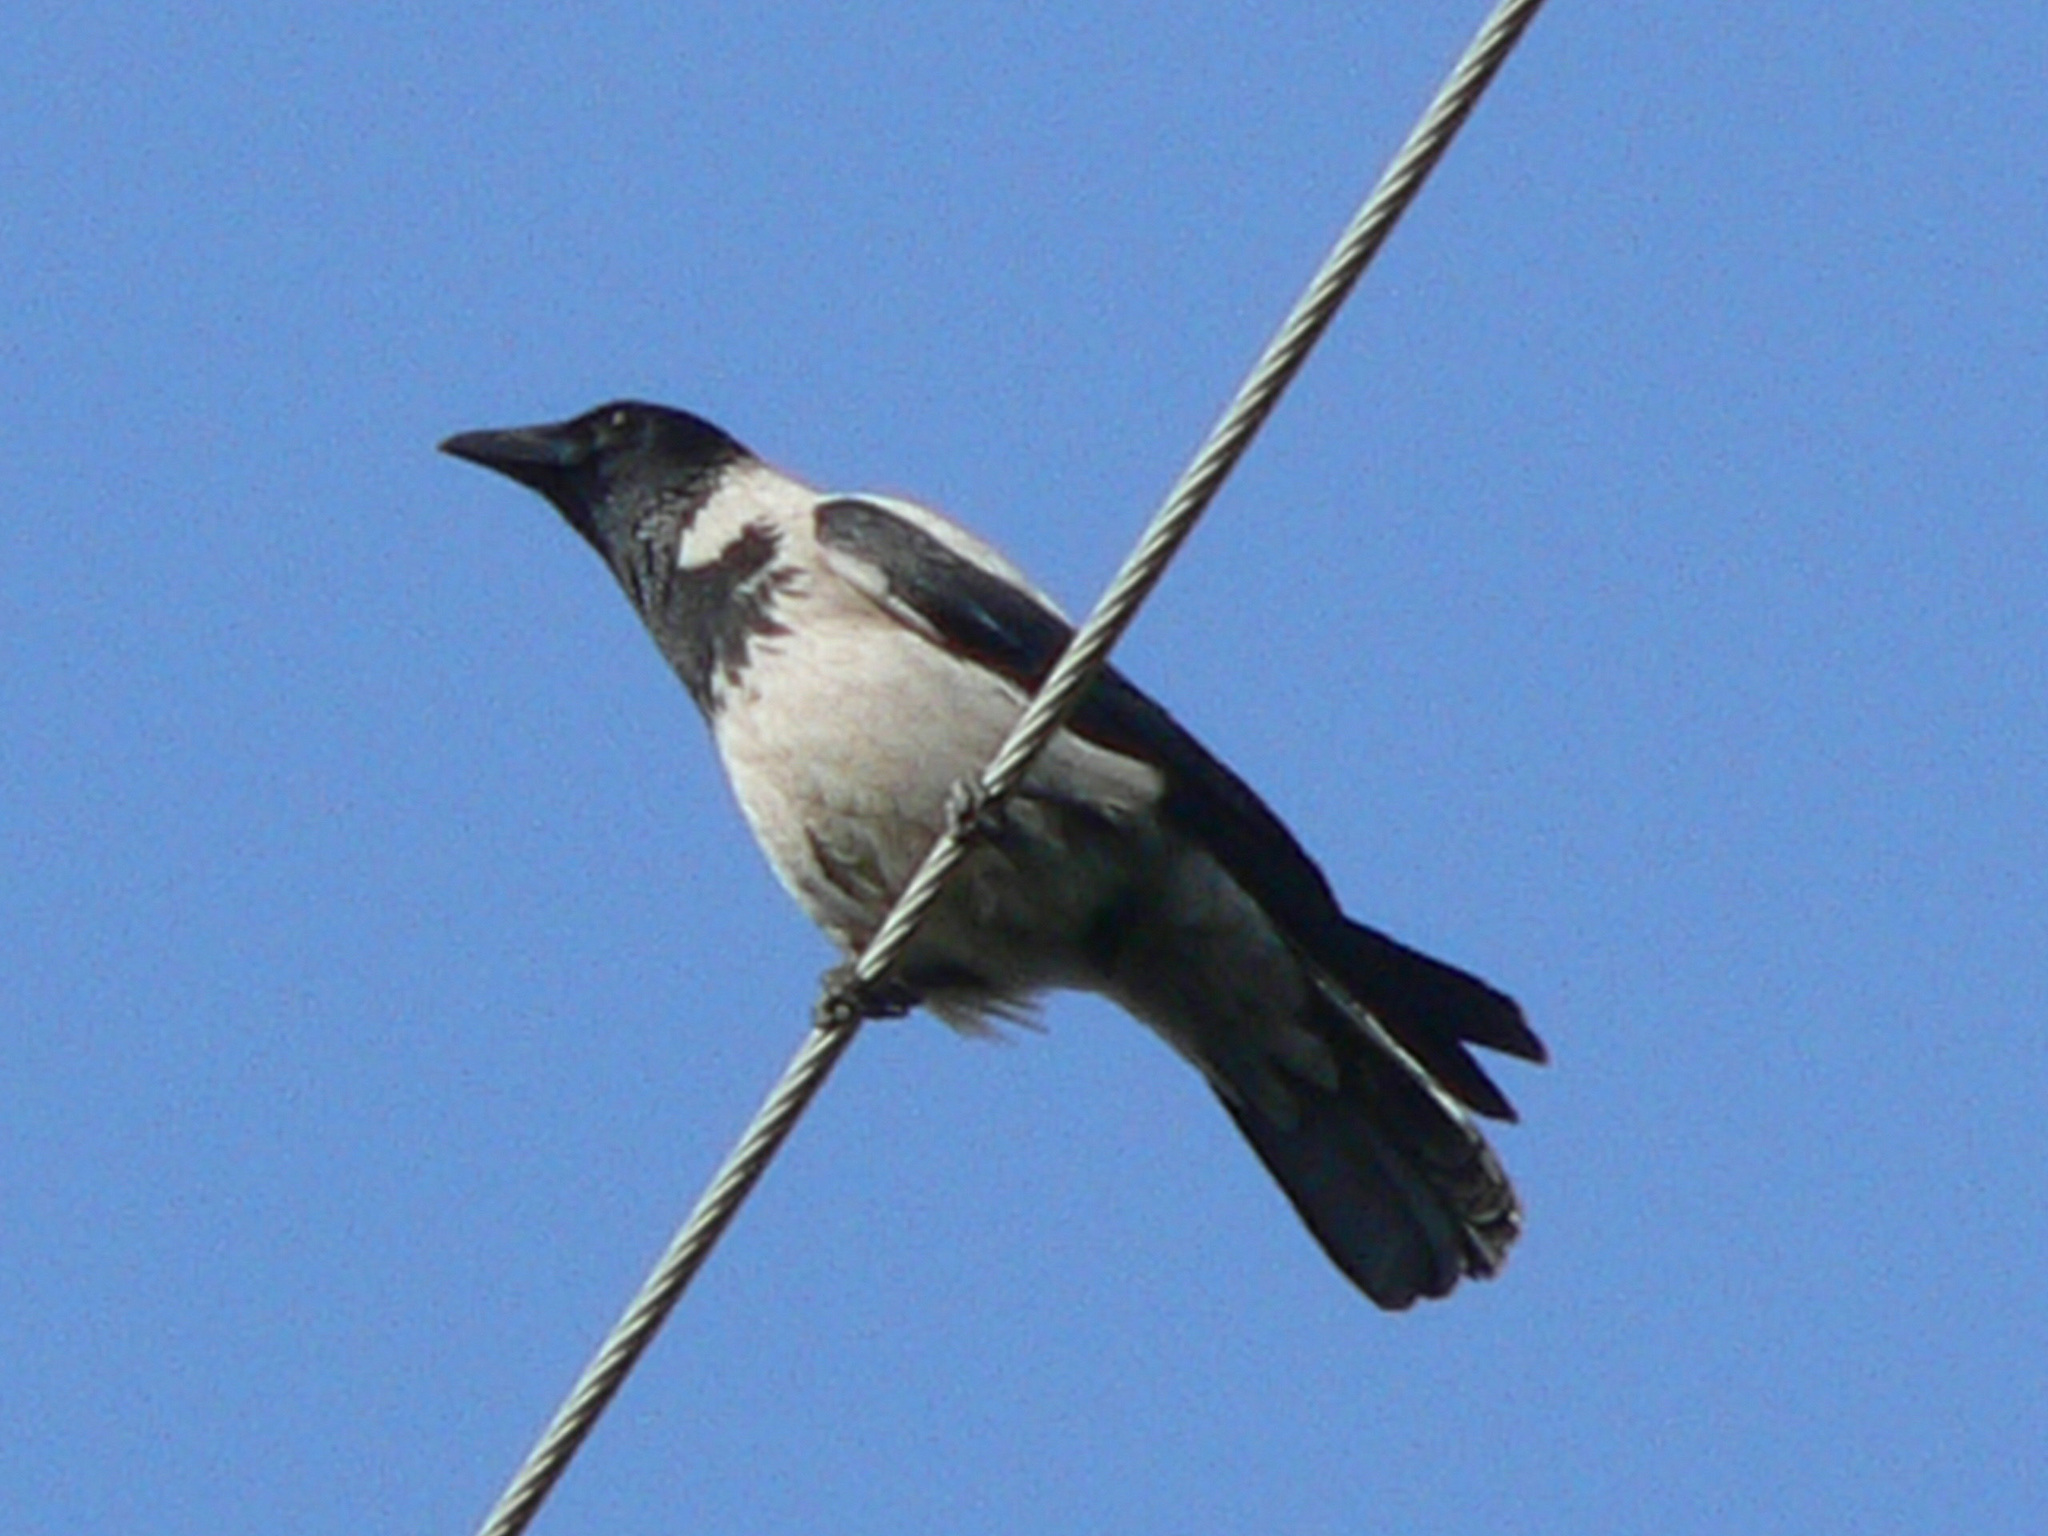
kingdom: Animalia
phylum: Chordata
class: Aves
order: Passeriformes
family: Corvidae
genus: Corvus
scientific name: Corvus cornix
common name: Hooded crow
